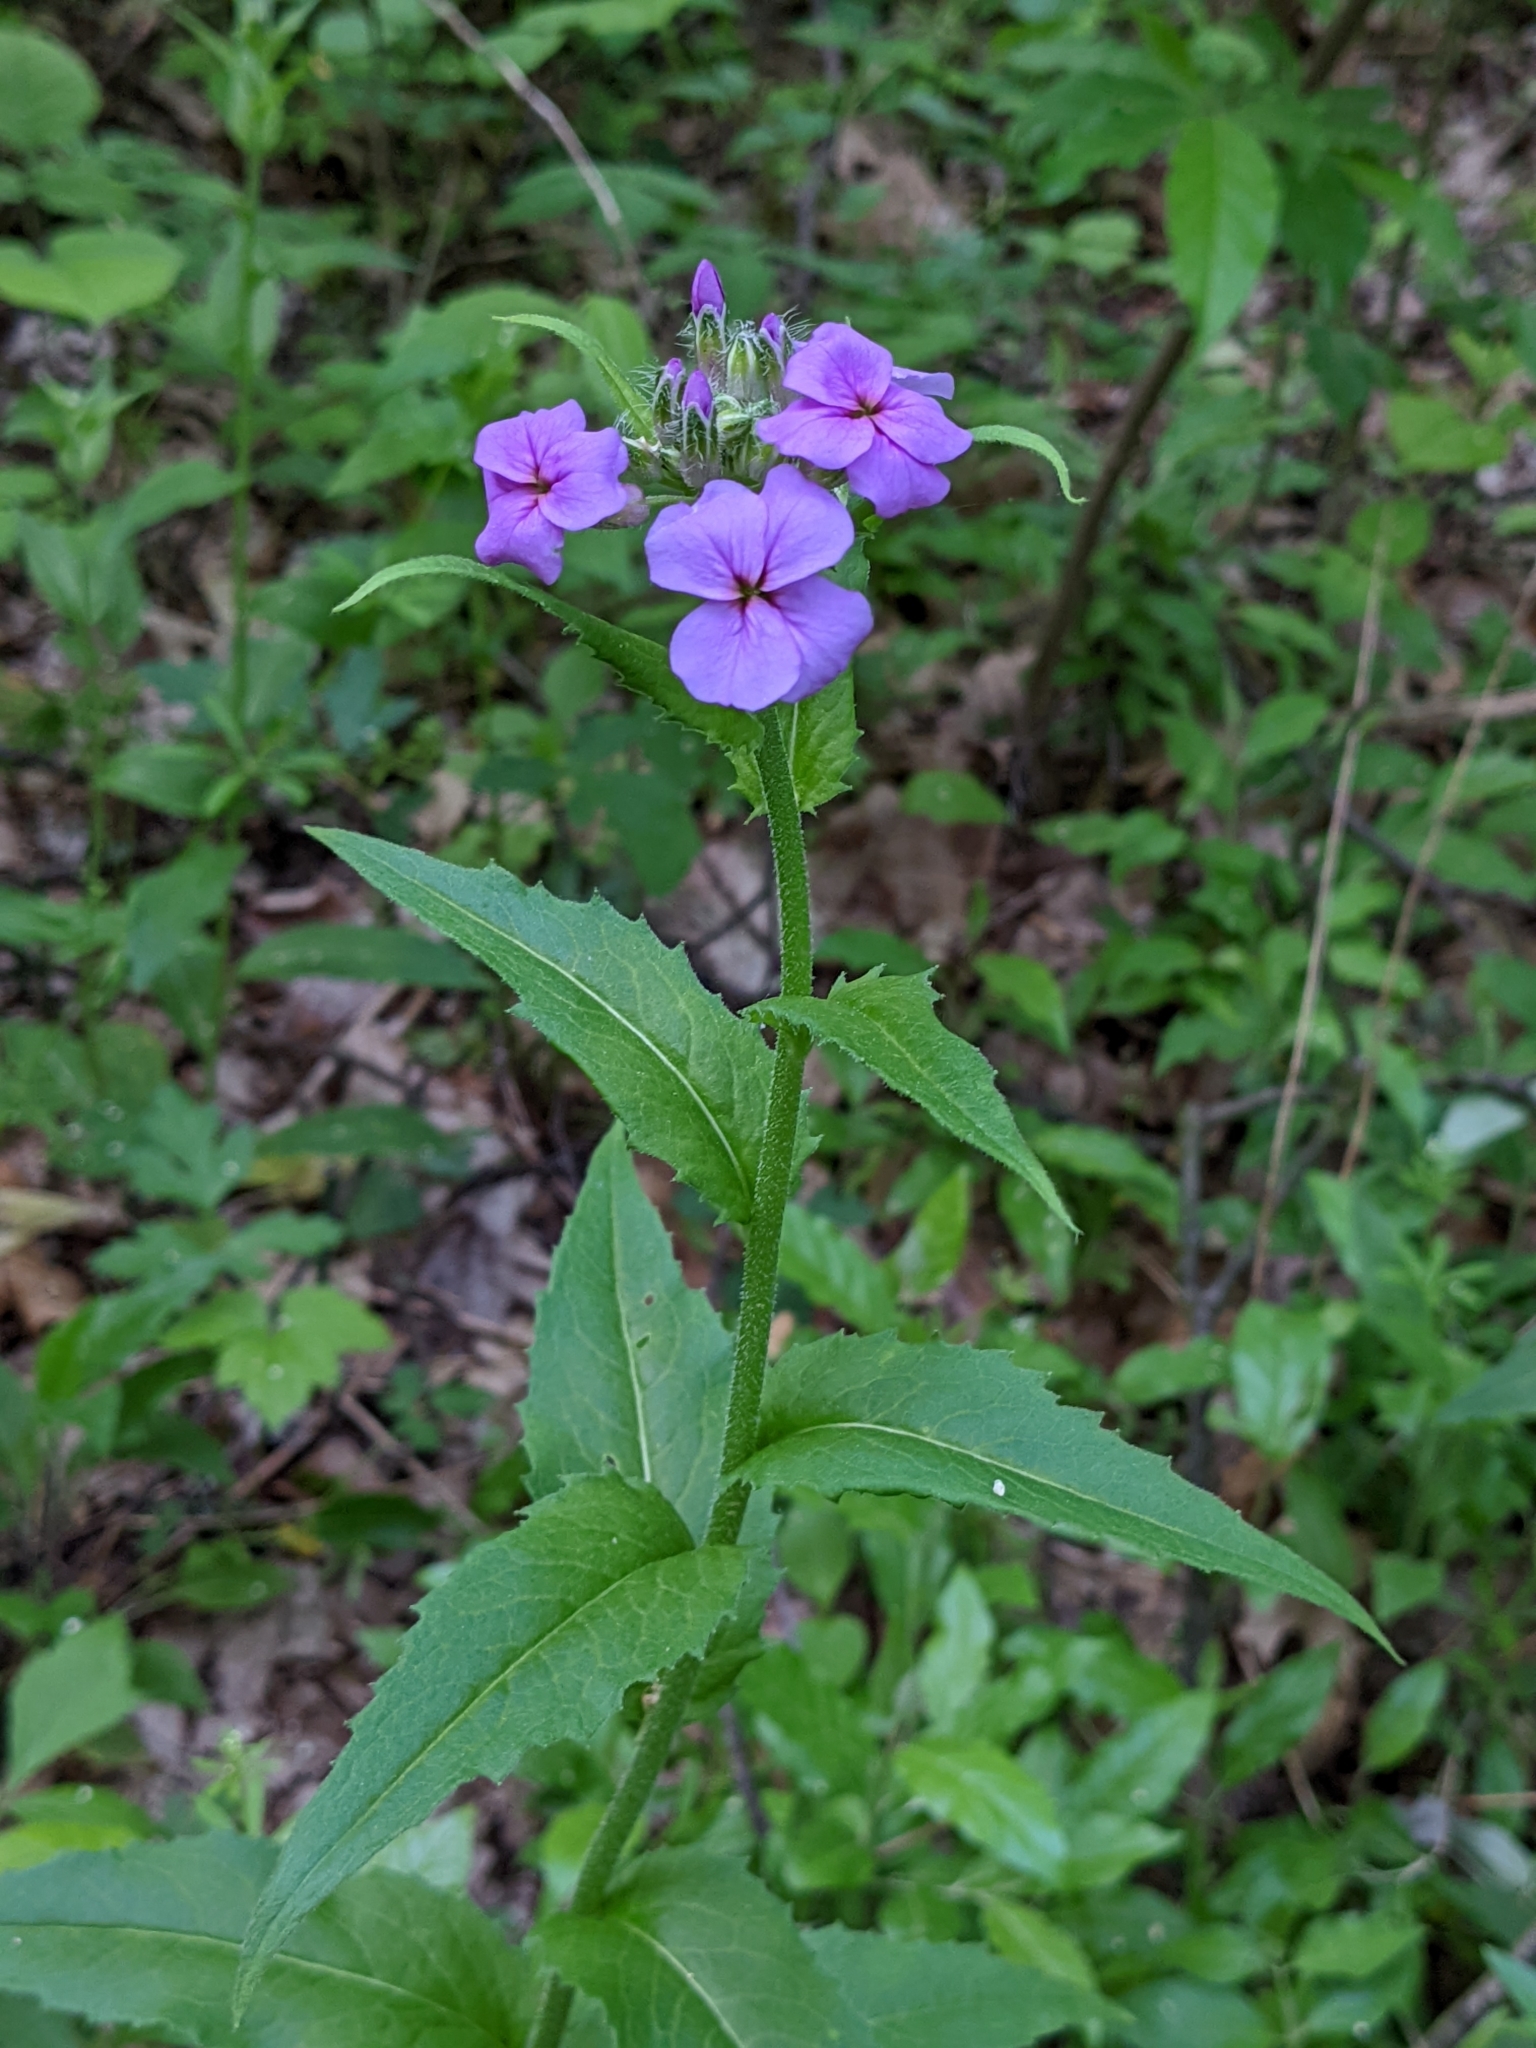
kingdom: Plantae
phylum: Tracheophyta
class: Magnoliopsida
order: Brassicales
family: Brassicaceae
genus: Hesperis
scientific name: Hesperis matronalis
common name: Dame's-violet
